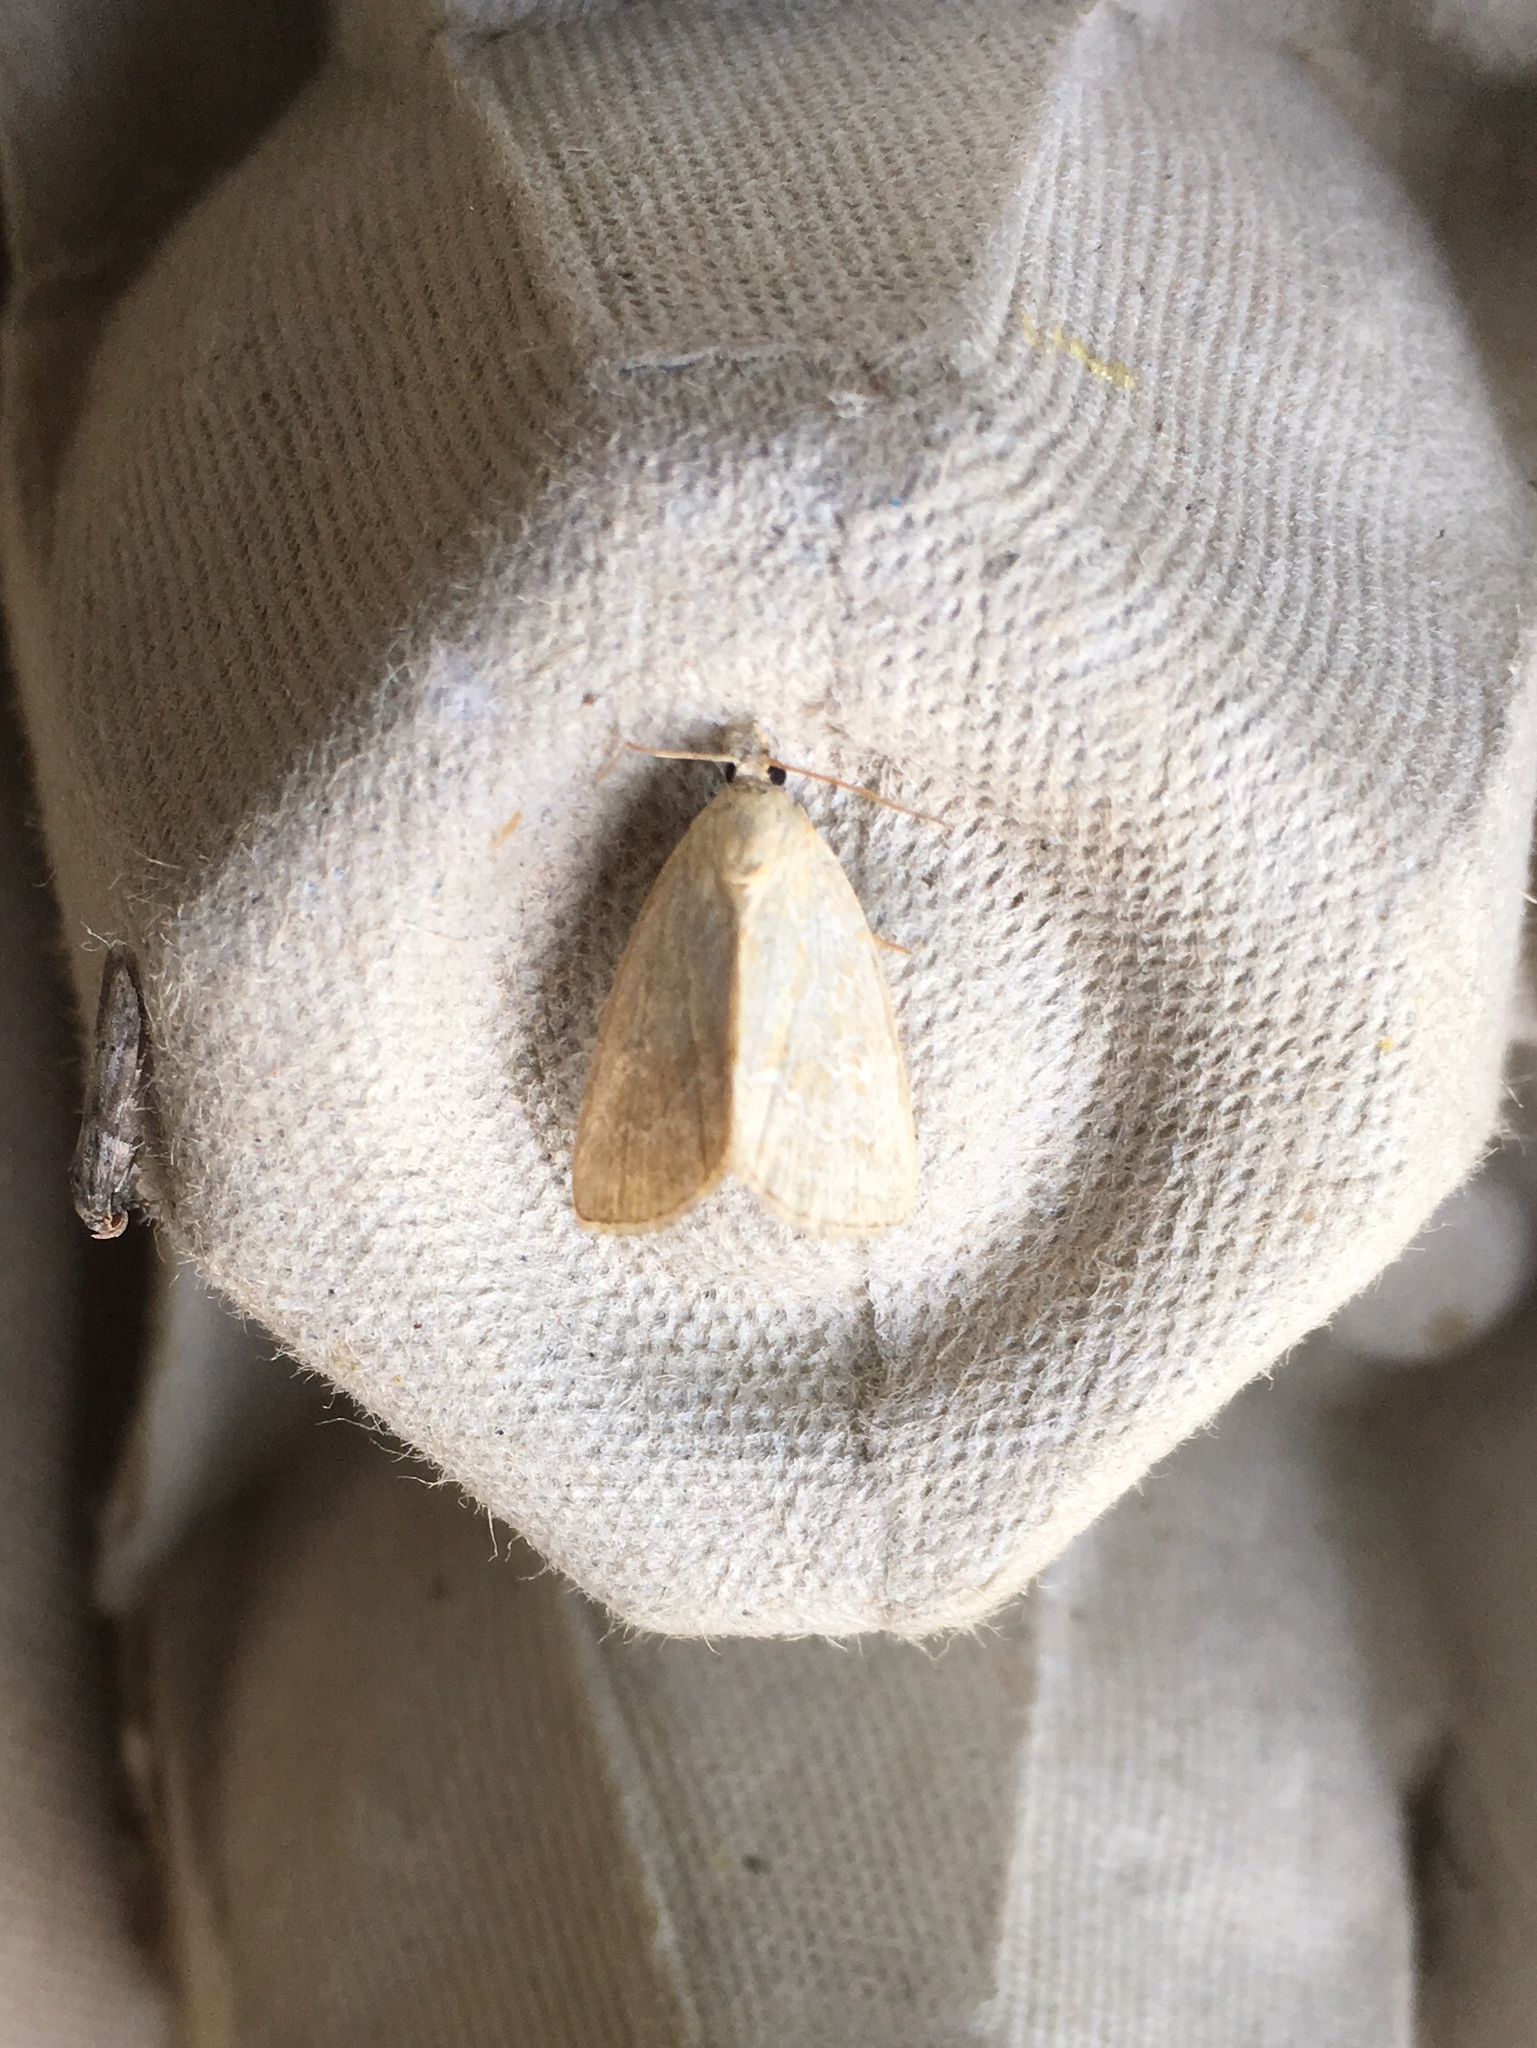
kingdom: Animalia
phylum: Arthropoda
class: Insecta
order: Lepidoptera
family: Noctuidae
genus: Protodeltote
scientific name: Protodeltote albidula
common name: Pale glyph
